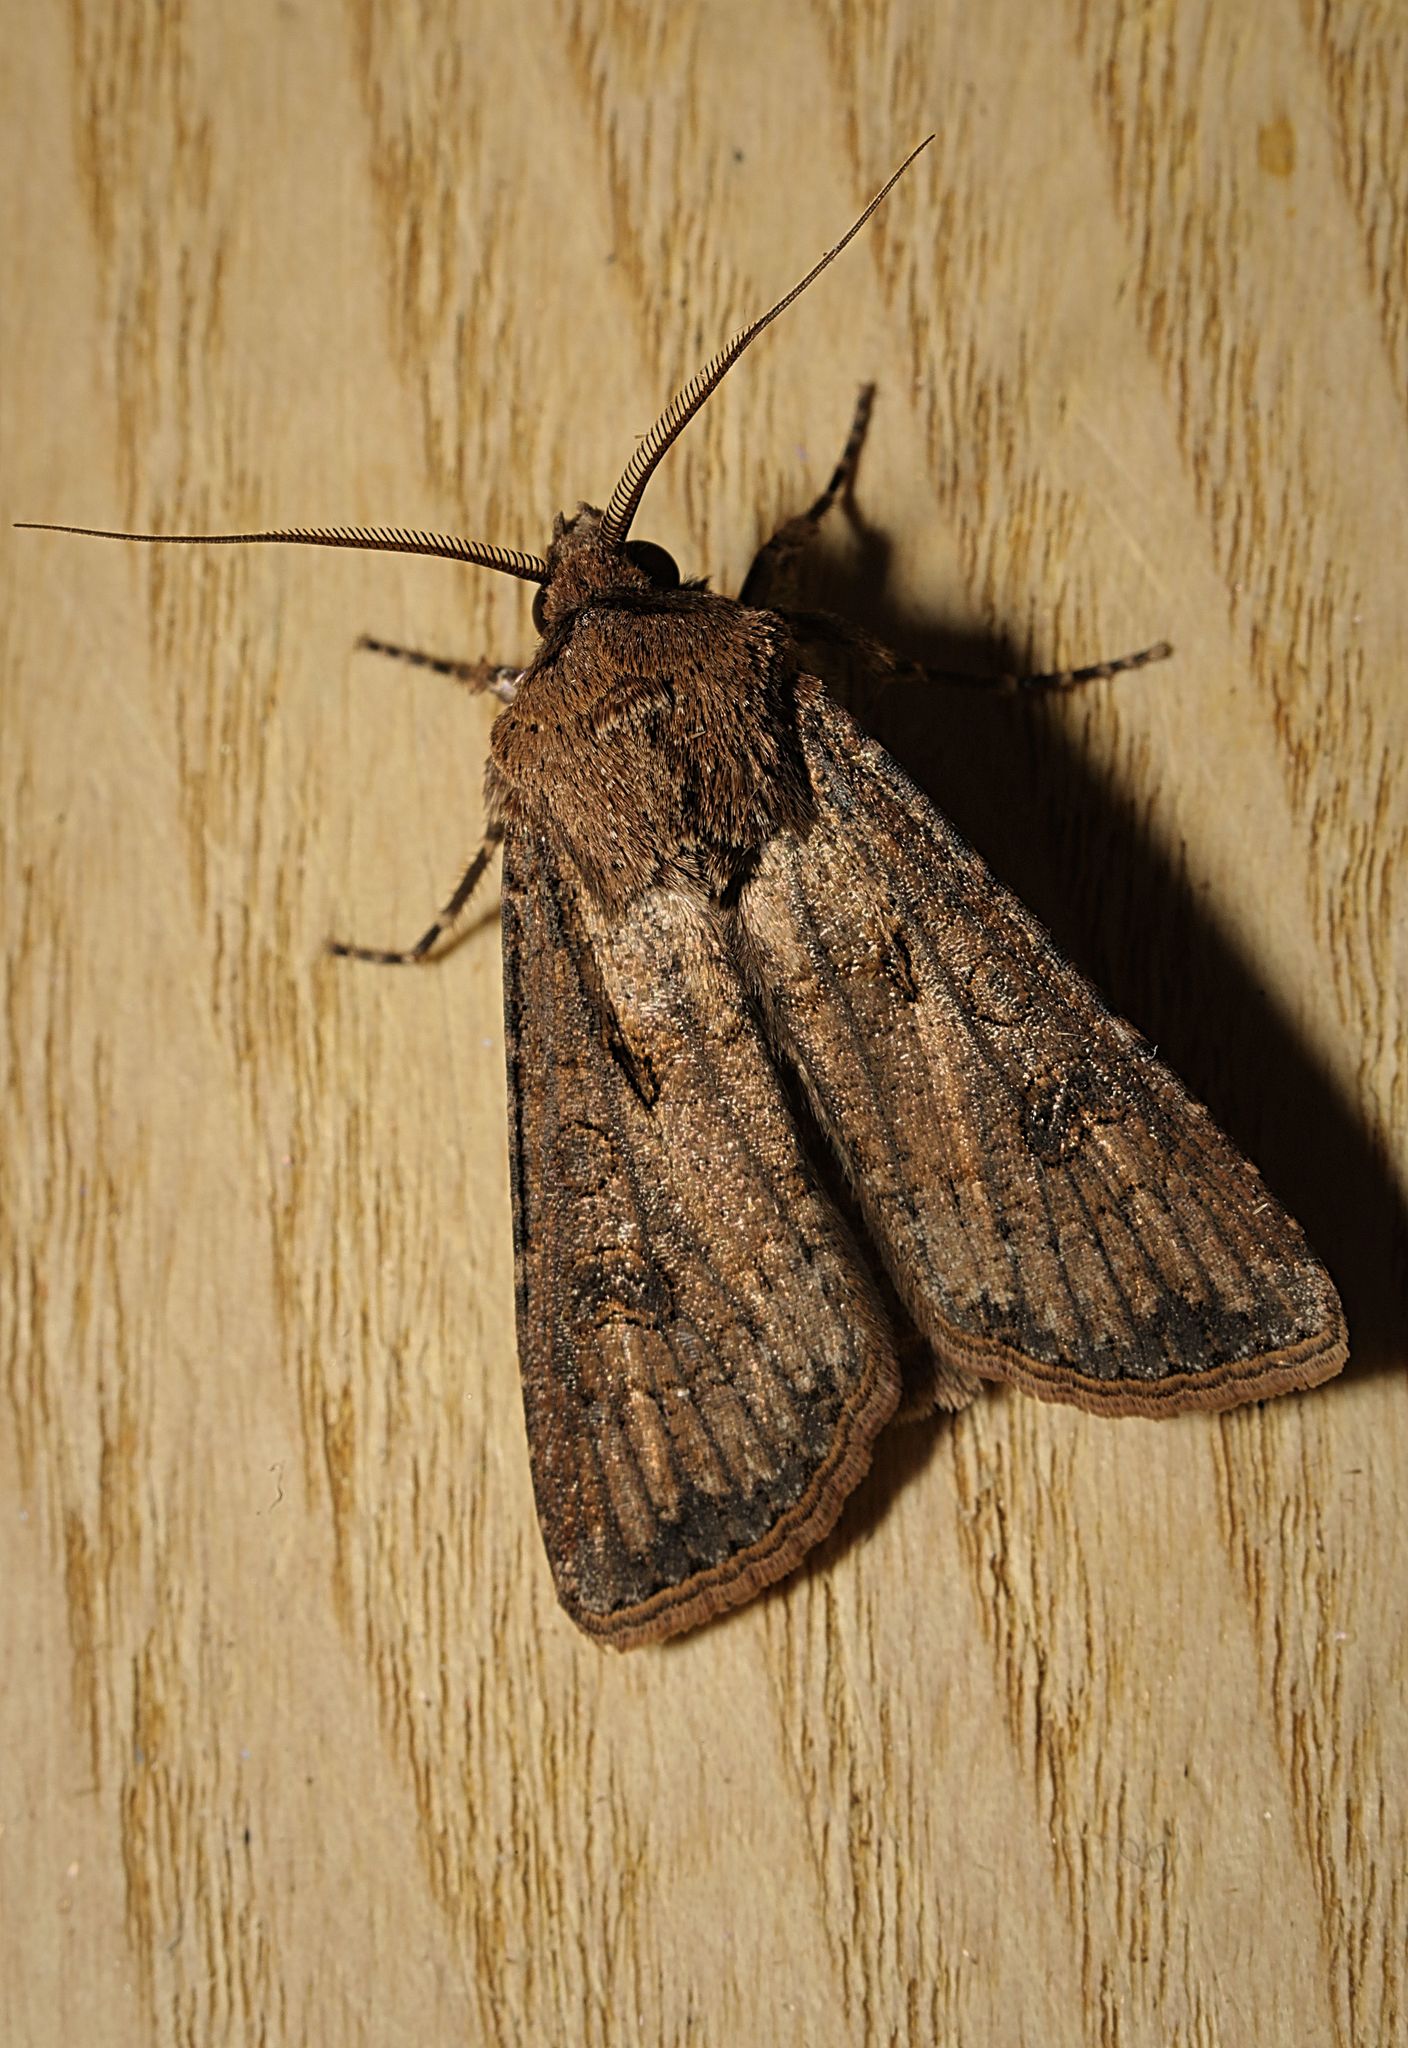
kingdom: Animalia
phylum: Arthropoda
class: Insecta
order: Lepidoptera
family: Noctuidae
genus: Agrotis
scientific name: Agrotis segetum
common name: Turnip moth
